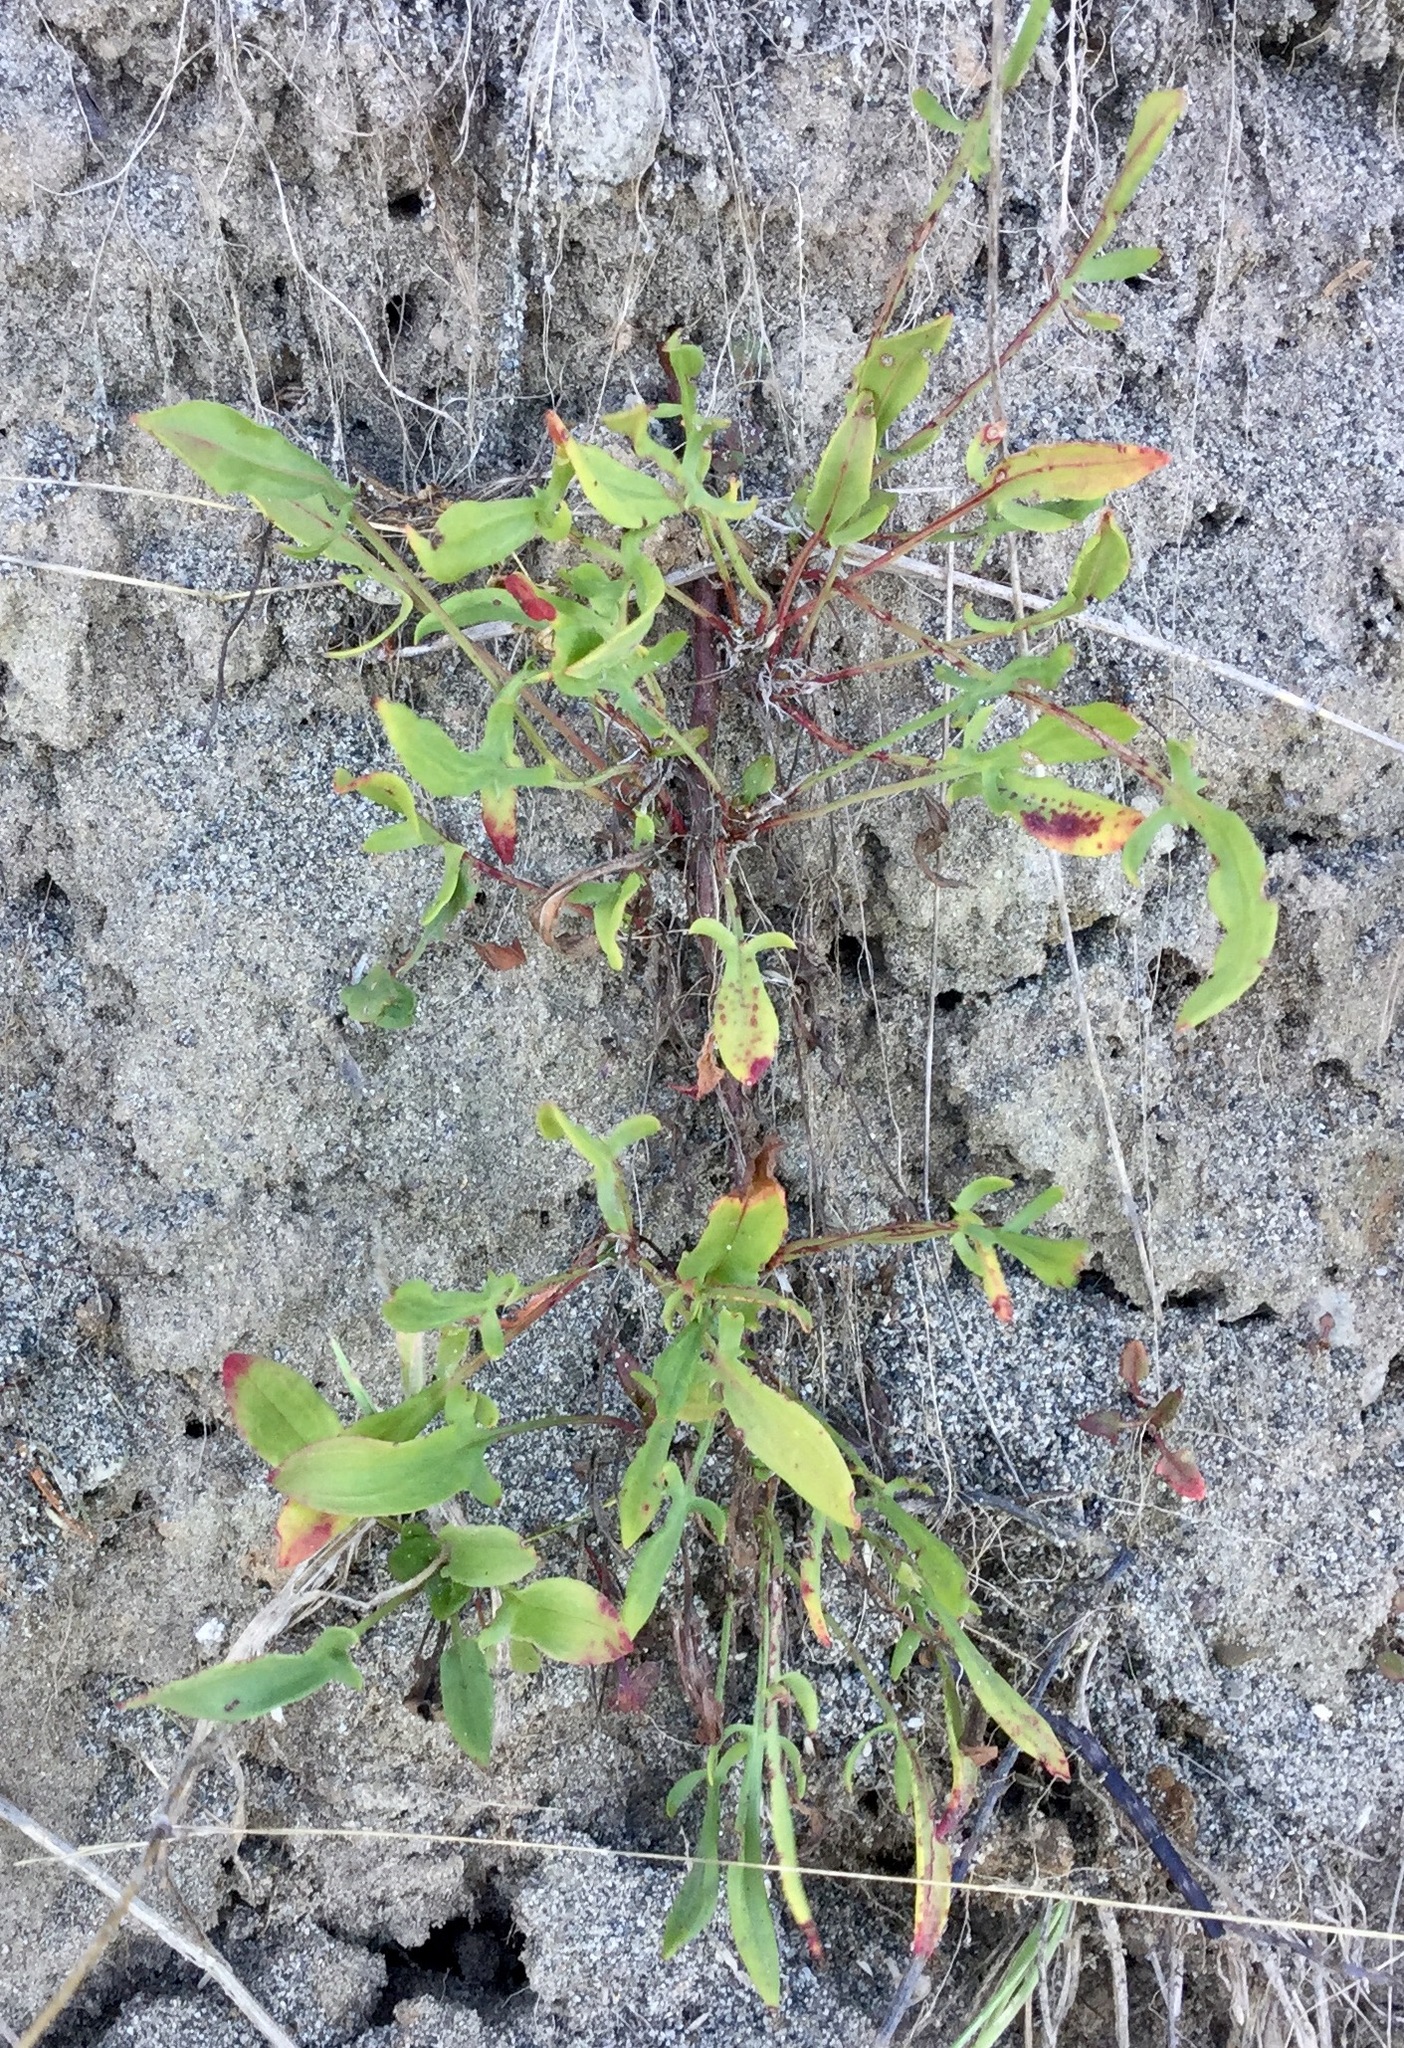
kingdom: Plantae
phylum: Tracheophyta
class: Magnoliopsida
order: Caryophyllales
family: Polygonaceae
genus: Rumex
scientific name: Rumex acetosella
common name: Common sheep sorrel
